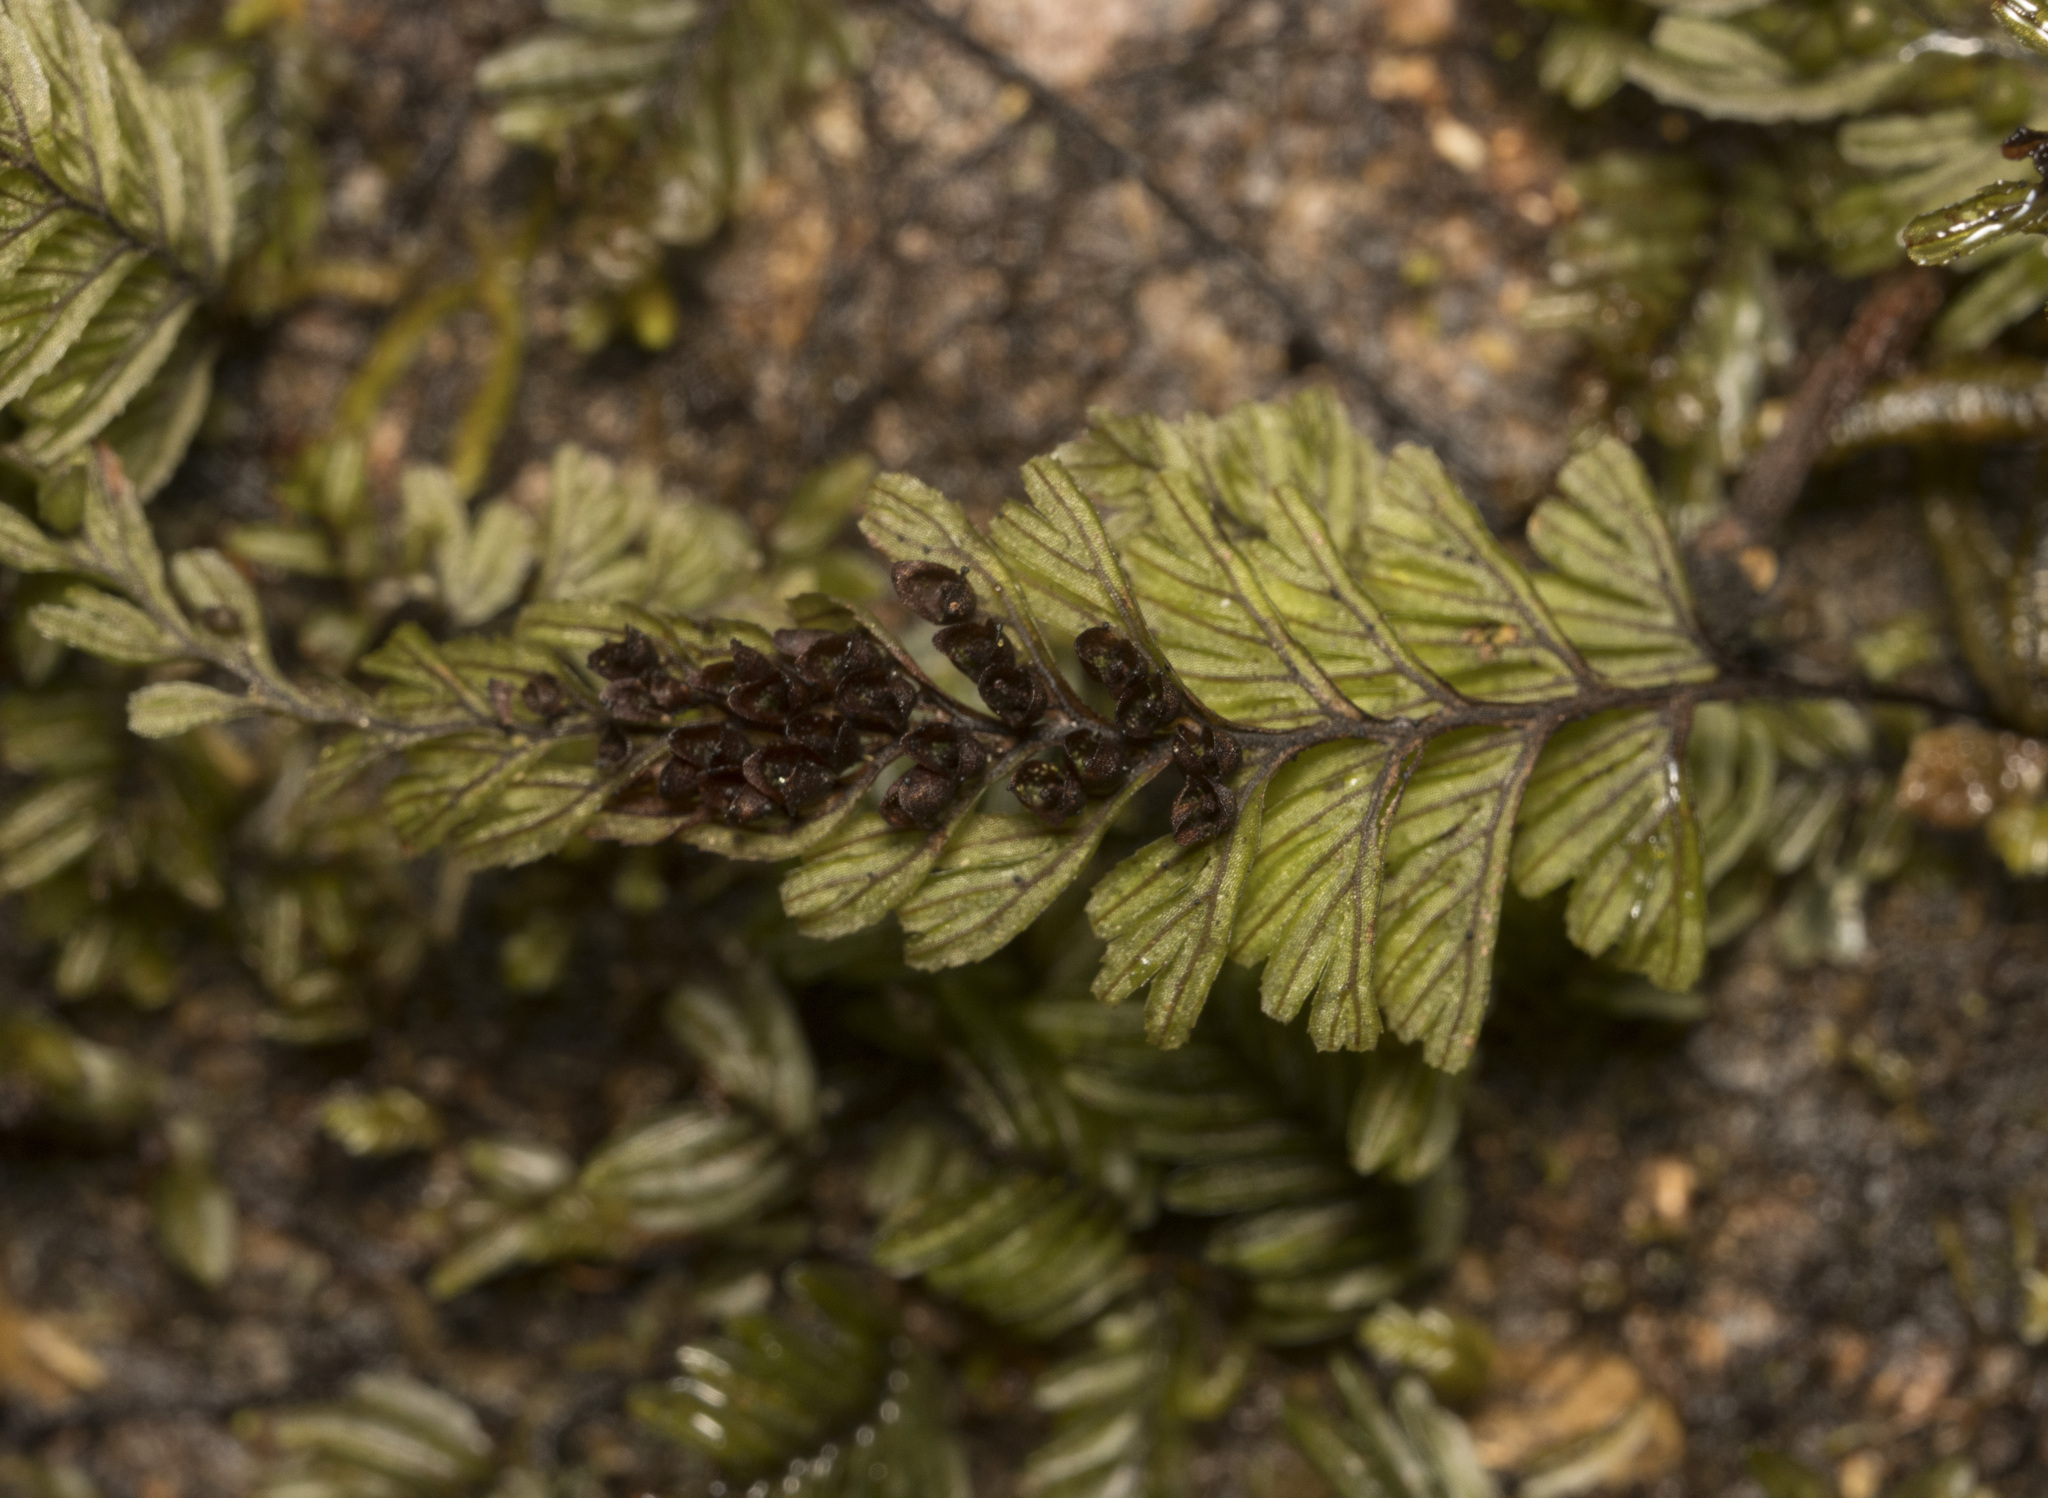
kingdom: Plantae
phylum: Tracheophyta
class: Polypodiopsida
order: Hymenophyllales
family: Hymenophyllaceae
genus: Hymenophyllum
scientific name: Hymenophyllum peltatum
